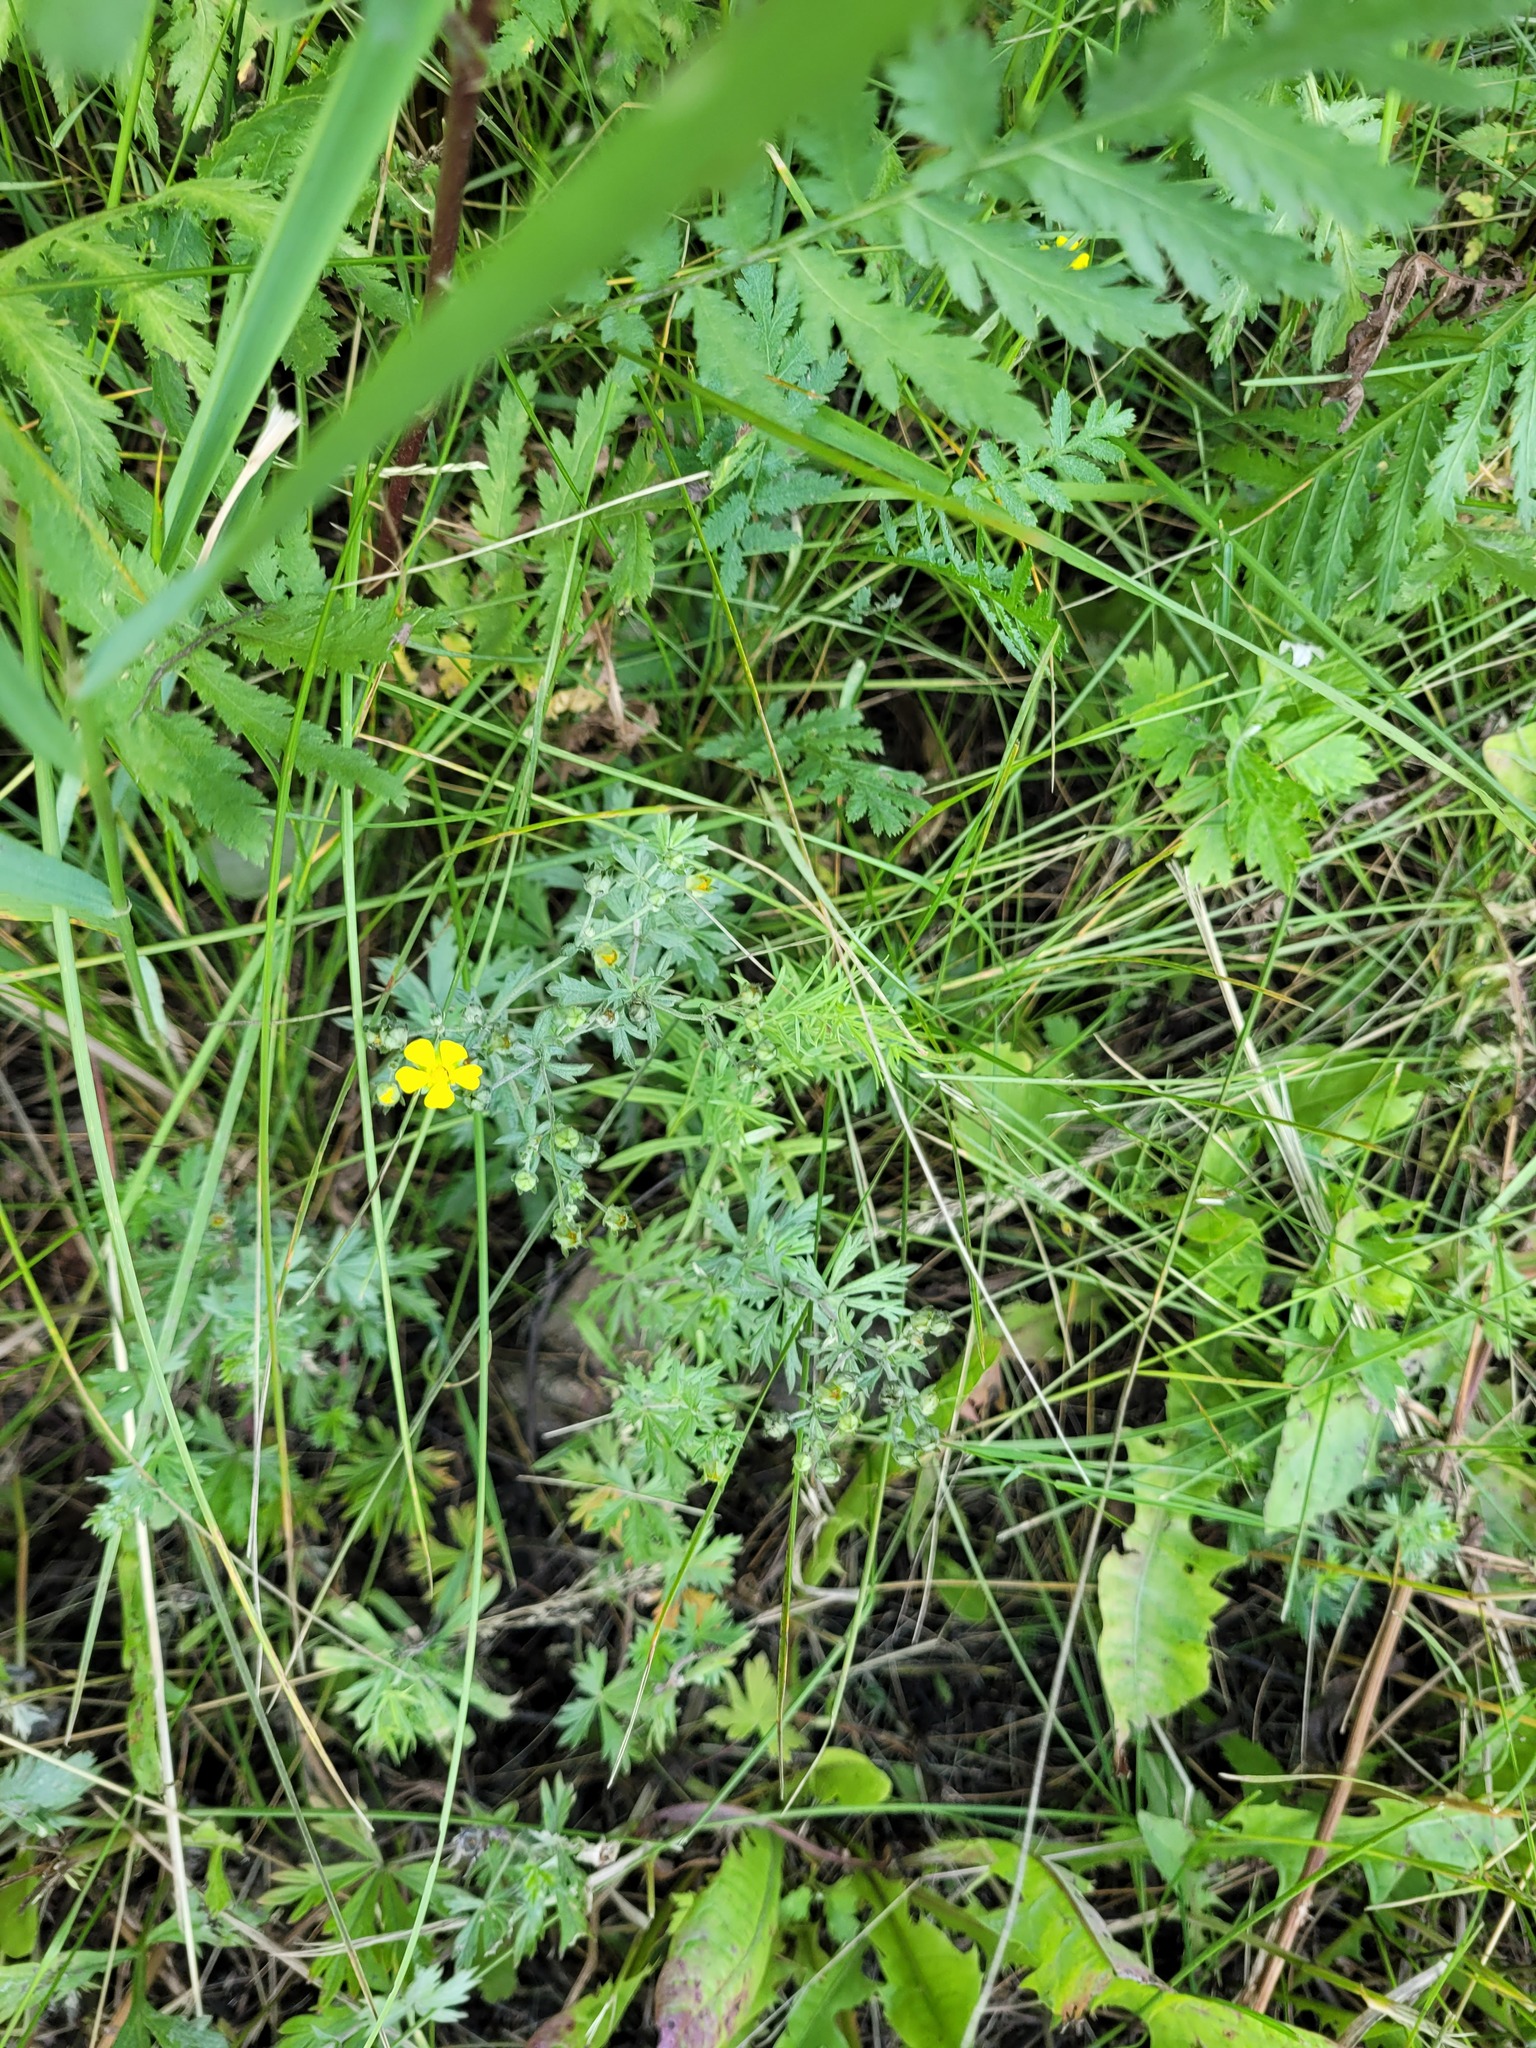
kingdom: Plantae
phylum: Tracheophyta
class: Magnoliopsida
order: Rosales
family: Rosaceae
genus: Potentilla
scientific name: Potentilla argentea
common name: Hoary cinquefoil
